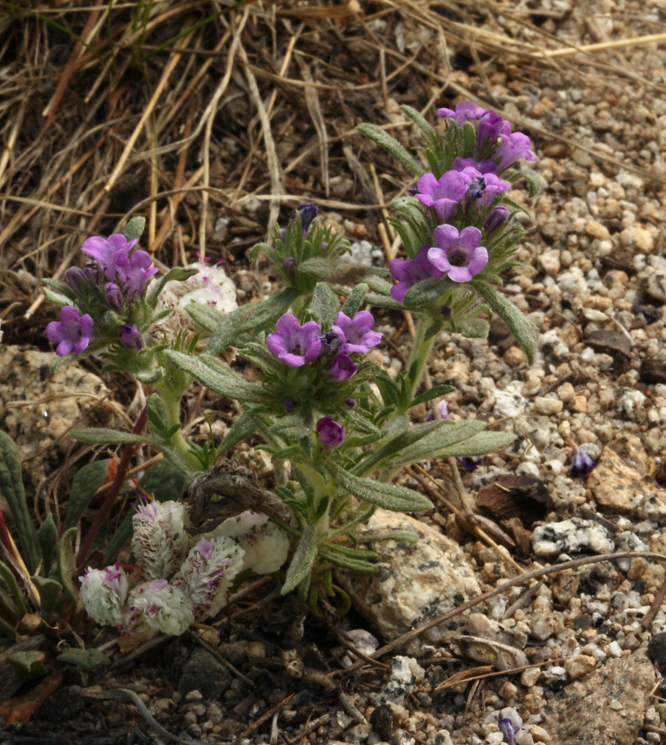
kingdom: Plantae
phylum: Tracheophyta
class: Magnoliopsida
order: Boraginales
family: Namaceae
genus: Nama
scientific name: Nama lobbii
